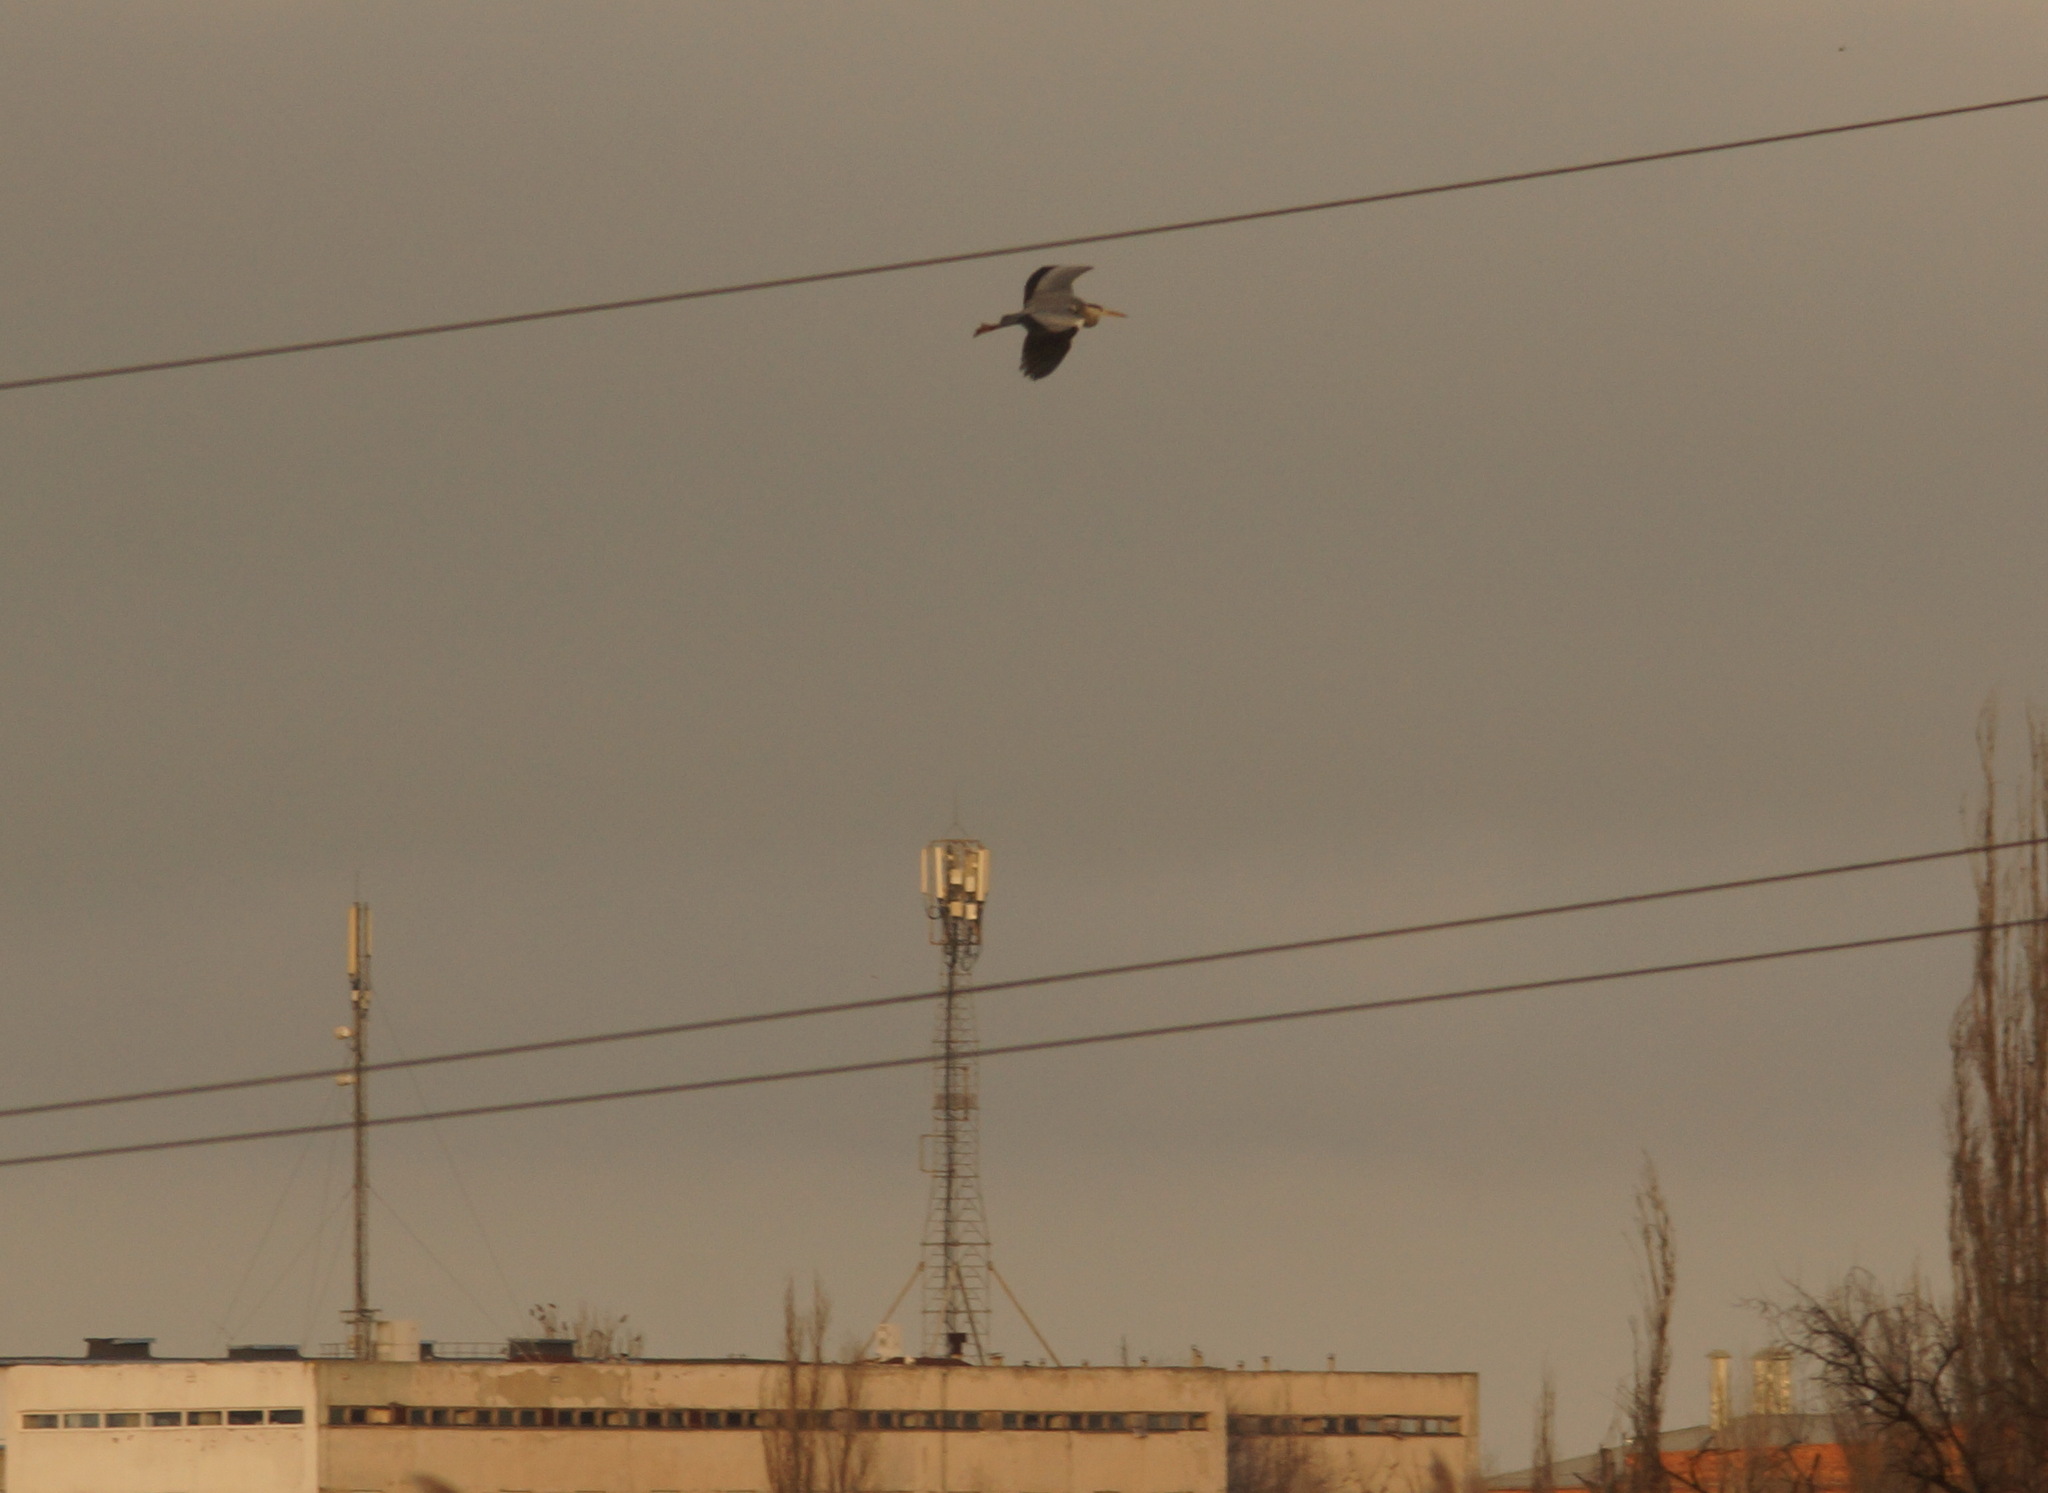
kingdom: Animalia
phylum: Chordata
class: Aves
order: Pelecaniformes
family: Ardeidae
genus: Ardea
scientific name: Ardea cinerea
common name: Grey heron
